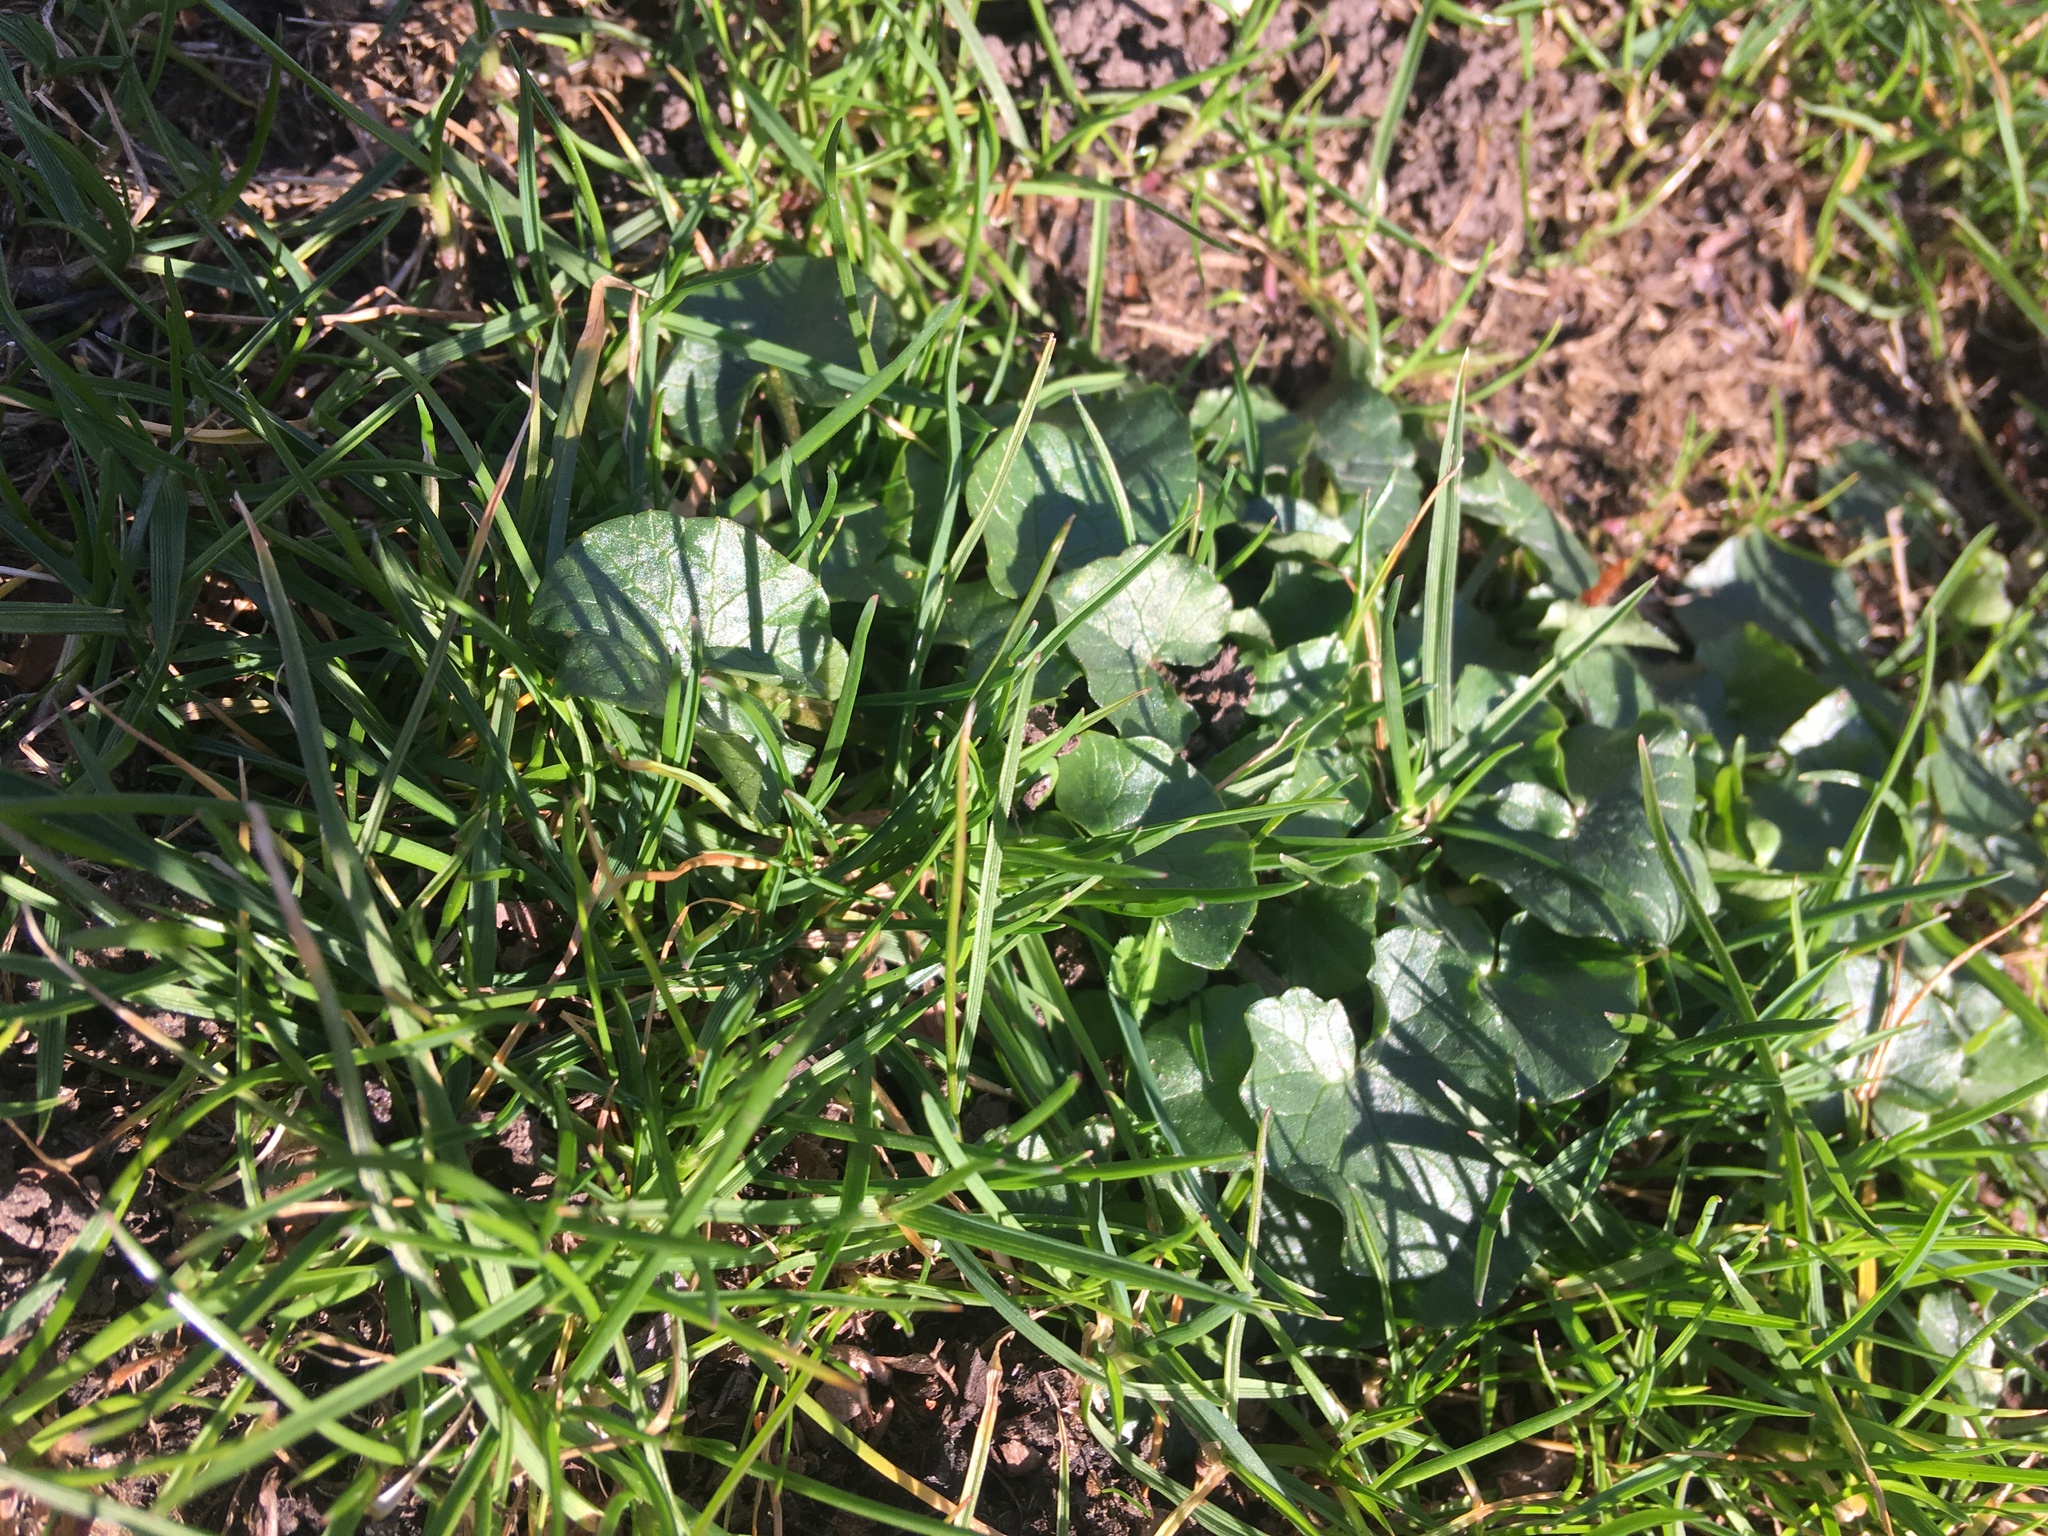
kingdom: Plantae
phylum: Tracheophyta
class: Magnoliopsida
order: Ranunculales
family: Ranunculaceae
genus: Ficaria
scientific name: Ficaria verna
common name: Lesser celandine
